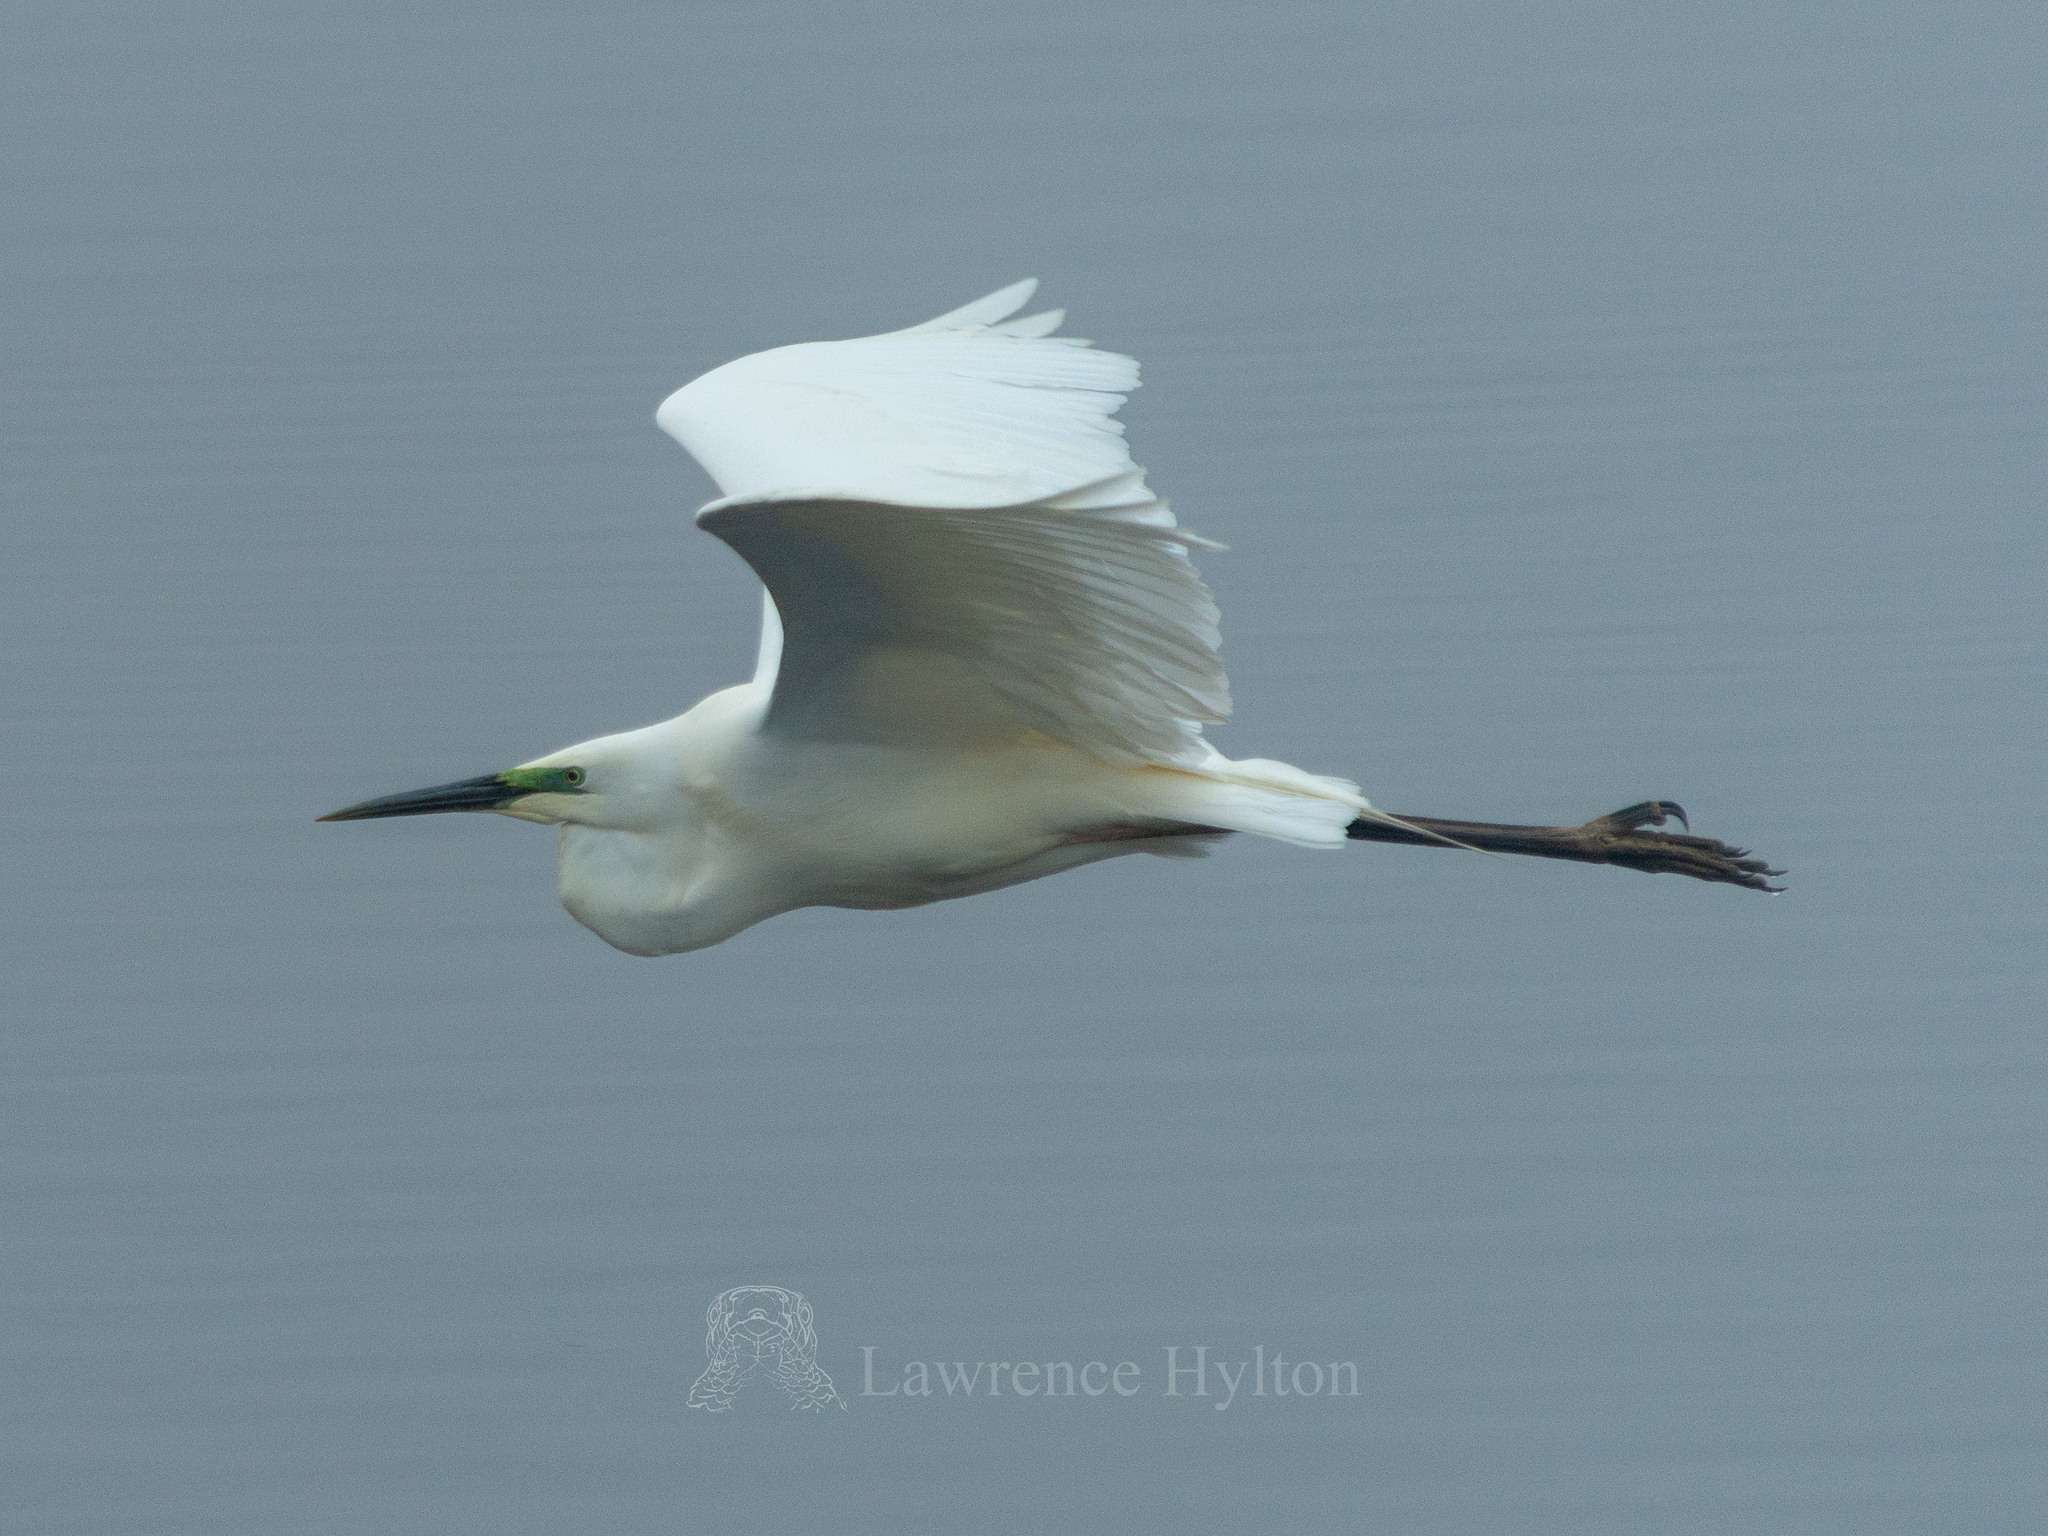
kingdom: Animalia
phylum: Chordata
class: Aves
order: Pelecaniformes
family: Ardeidae
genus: Ardea
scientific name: Ardea alba
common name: Great egret
